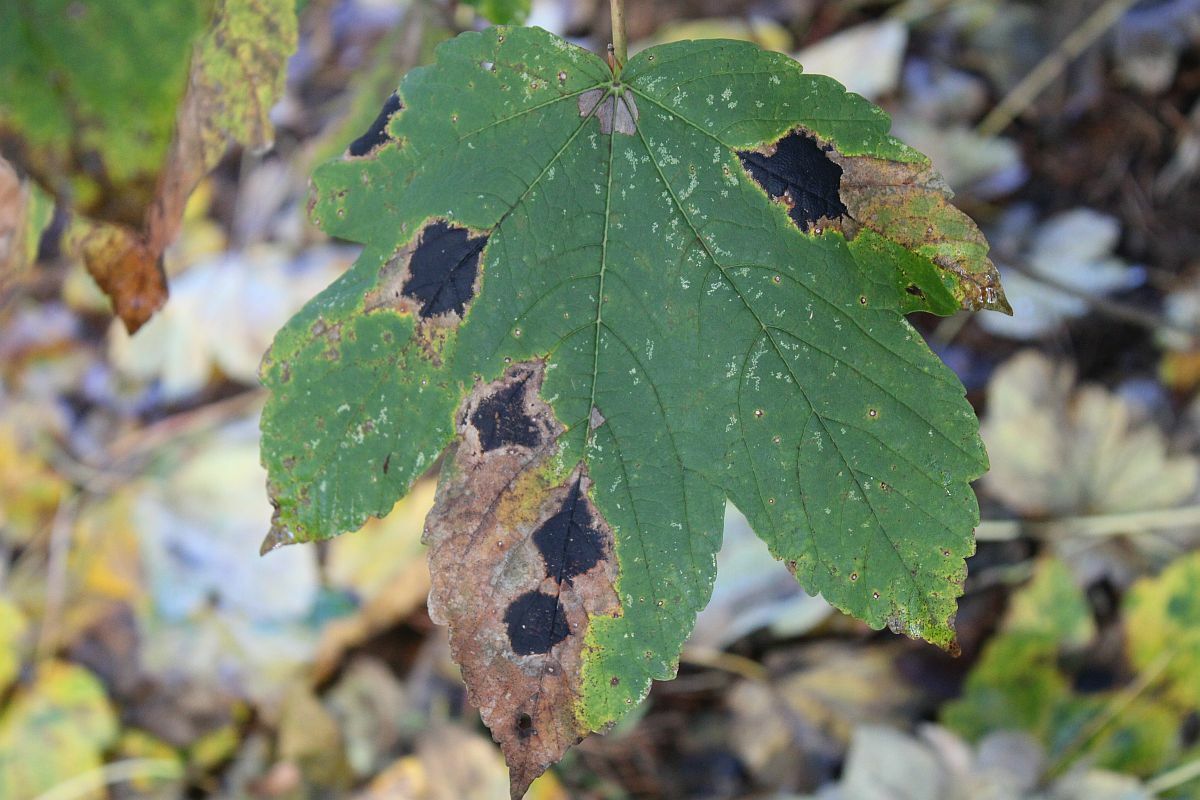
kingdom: Fungi
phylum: Ascomycota
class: Leotiomycetes
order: Rhytismatales
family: Rhytismataceae
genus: Rhytisma
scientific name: Rhytisma acerinum
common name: European tar spot
